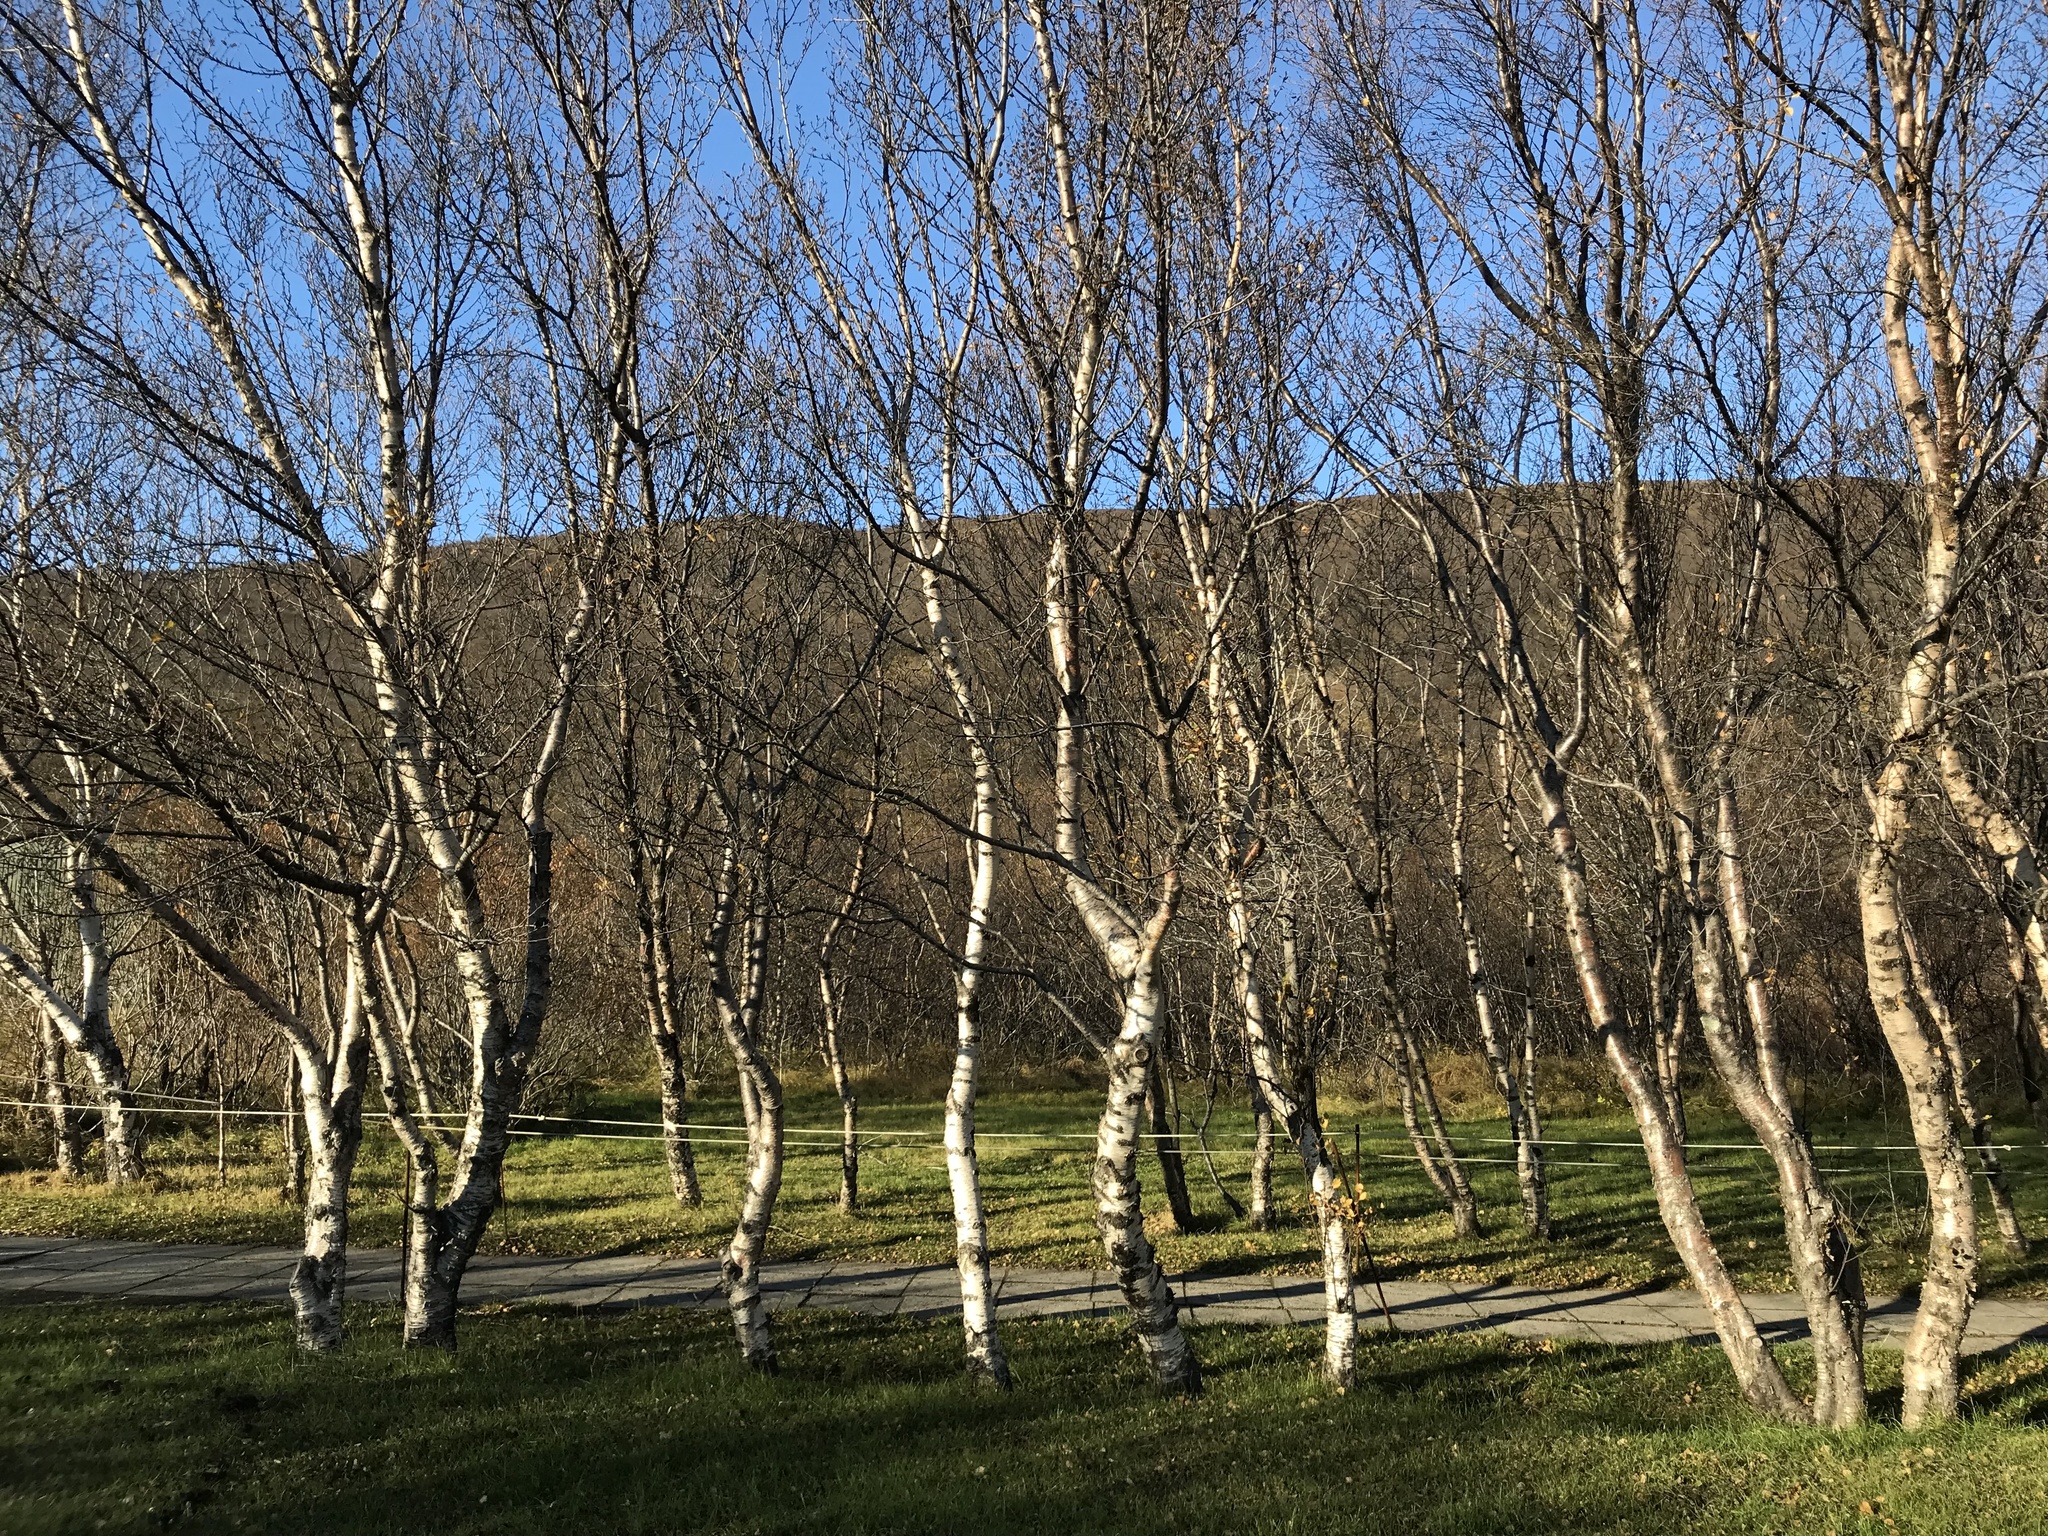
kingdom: Plantae
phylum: Tracheophyta
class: Magnoliopsida
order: Fagales
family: Betulaceae
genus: Betula
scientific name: Betula pubescens
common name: Downy birch
